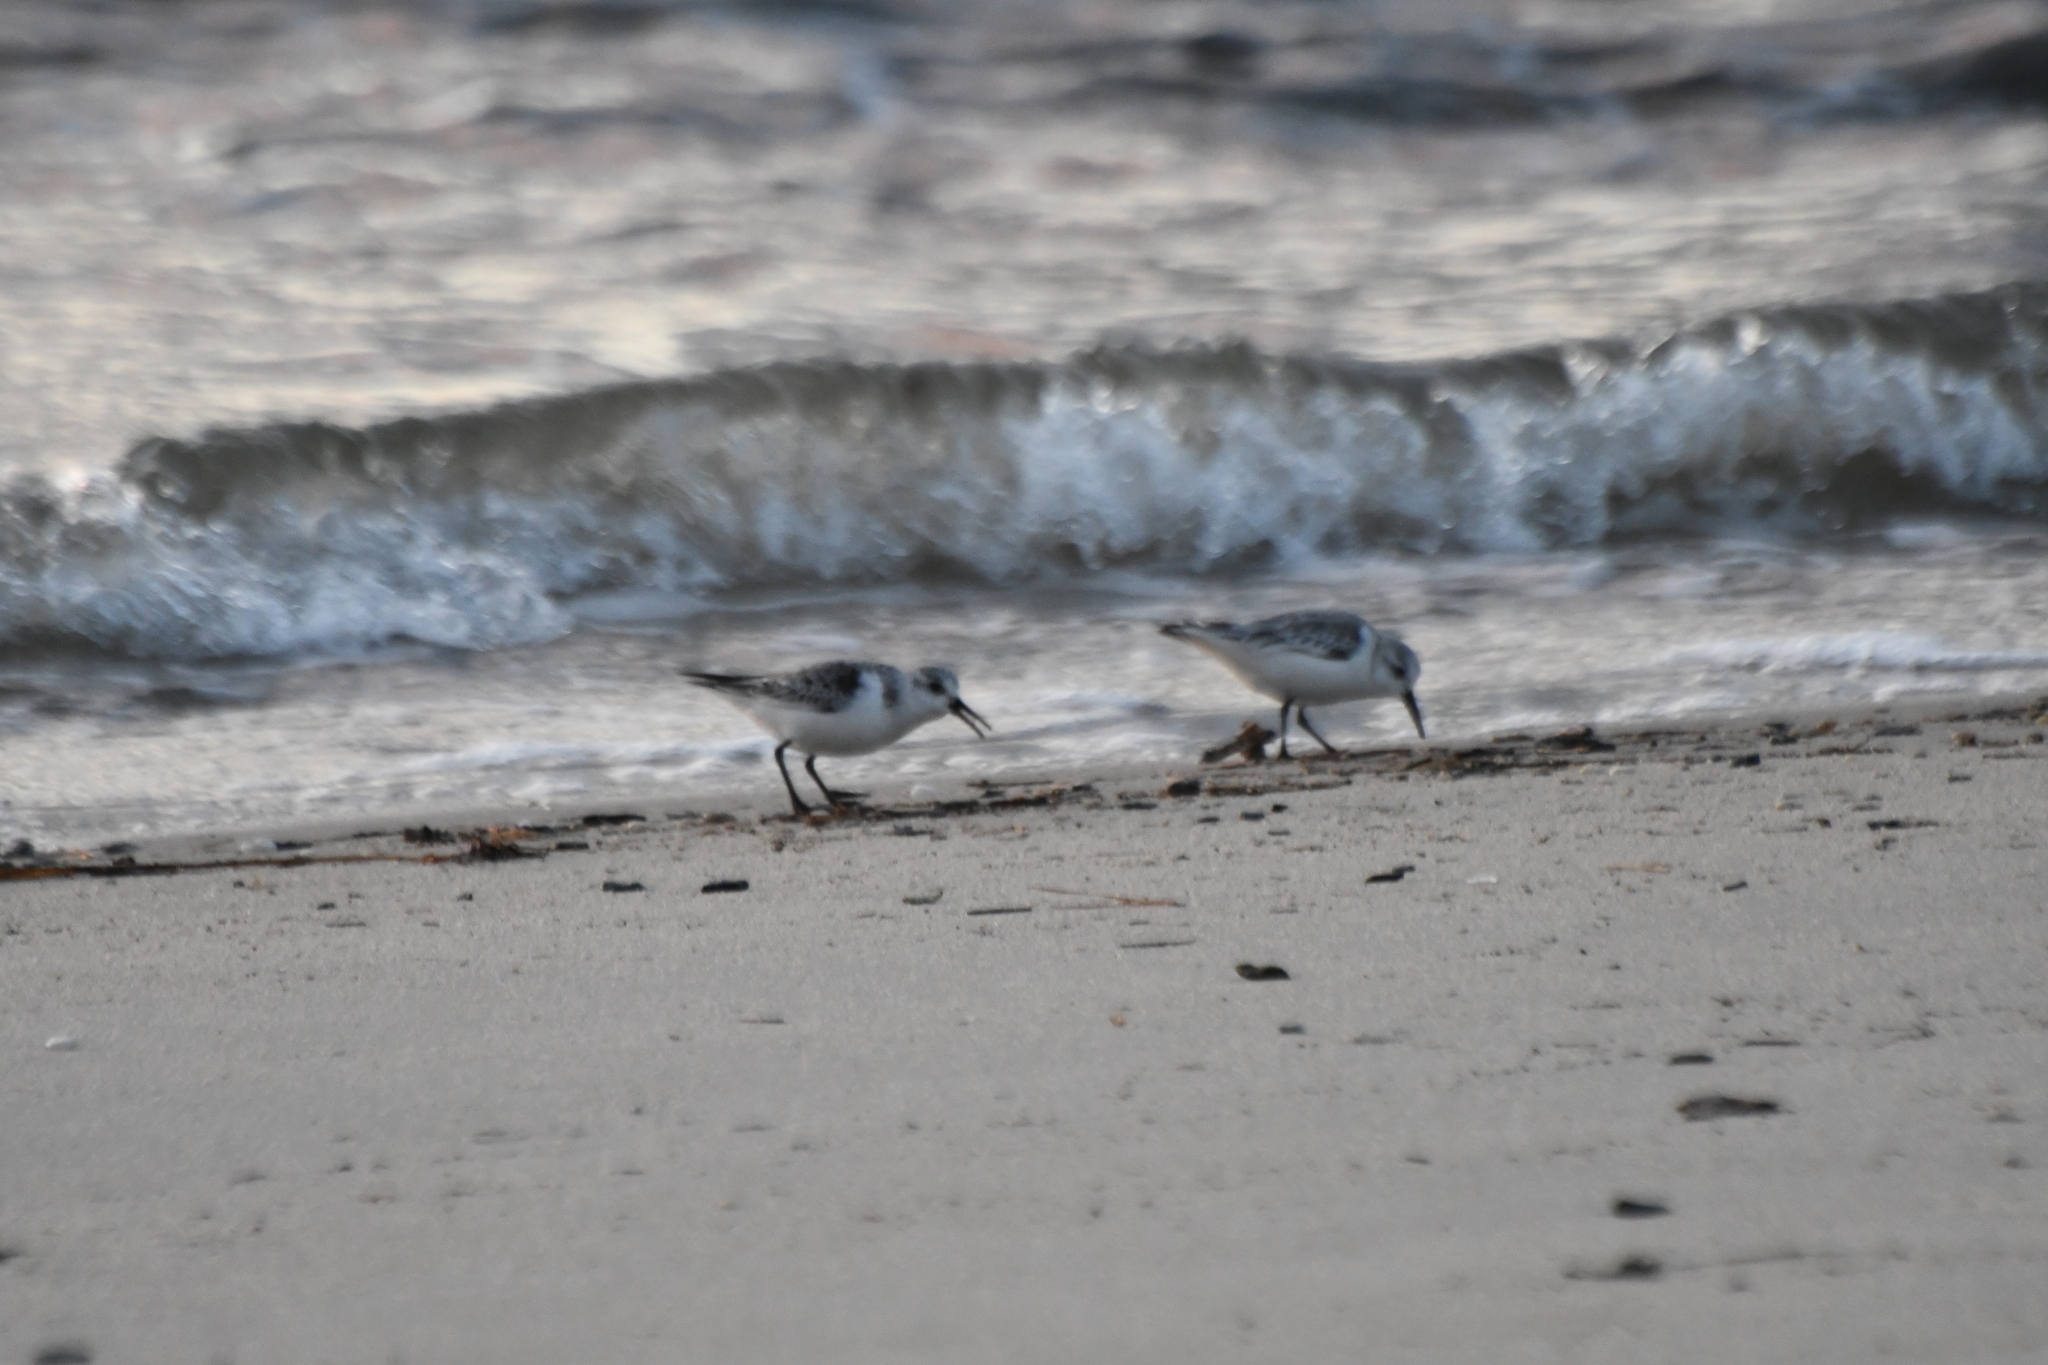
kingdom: Animalia
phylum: Chordata
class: Aves
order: Charadriiformes
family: Scolopacidae
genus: Calidris
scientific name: Calidris alba
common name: Sanderling
